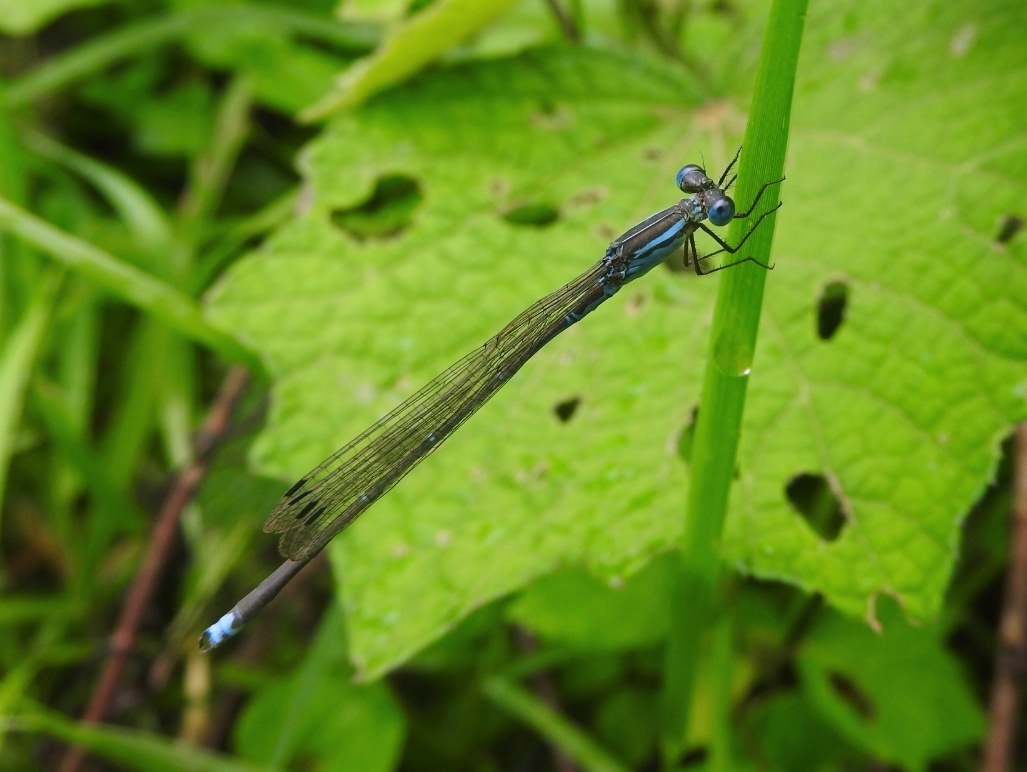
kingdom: Animalia
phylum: Arthropoda
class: Insecta
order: Odonata
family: Lestidae
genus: Indolestes
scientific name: Indolestes gracilis
